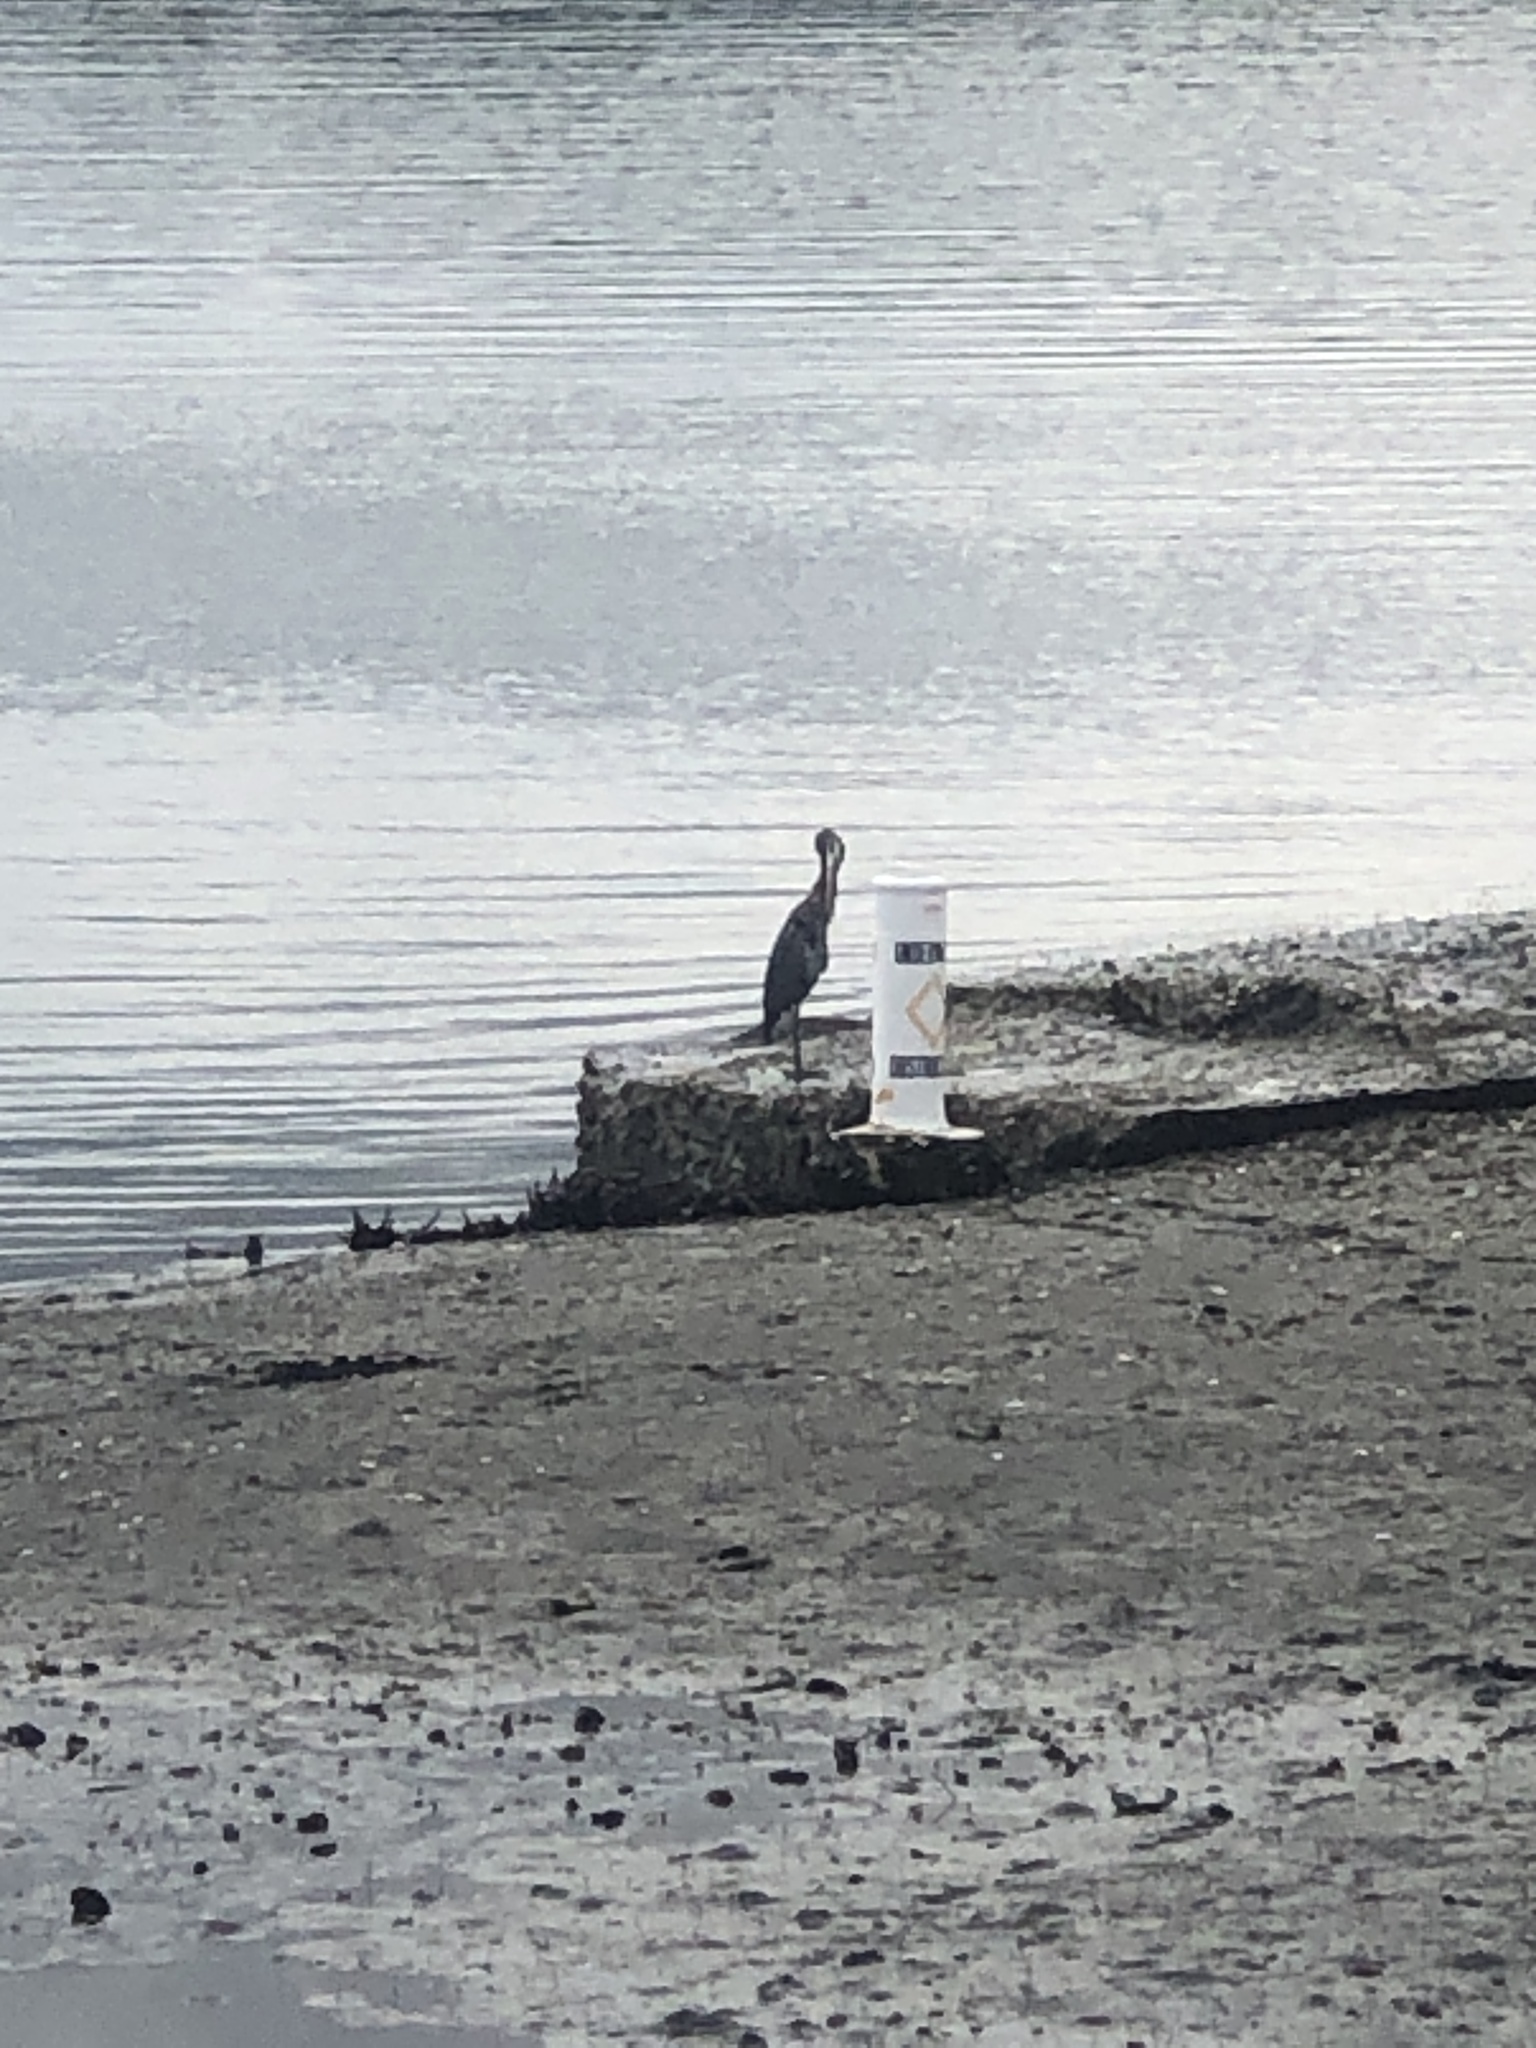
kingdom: Animalia
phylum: Chordata
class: Aves
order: Pelecaniformes
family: Ardeidae
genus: Ardea
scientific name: Ardea herodias
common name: Great blue heron
